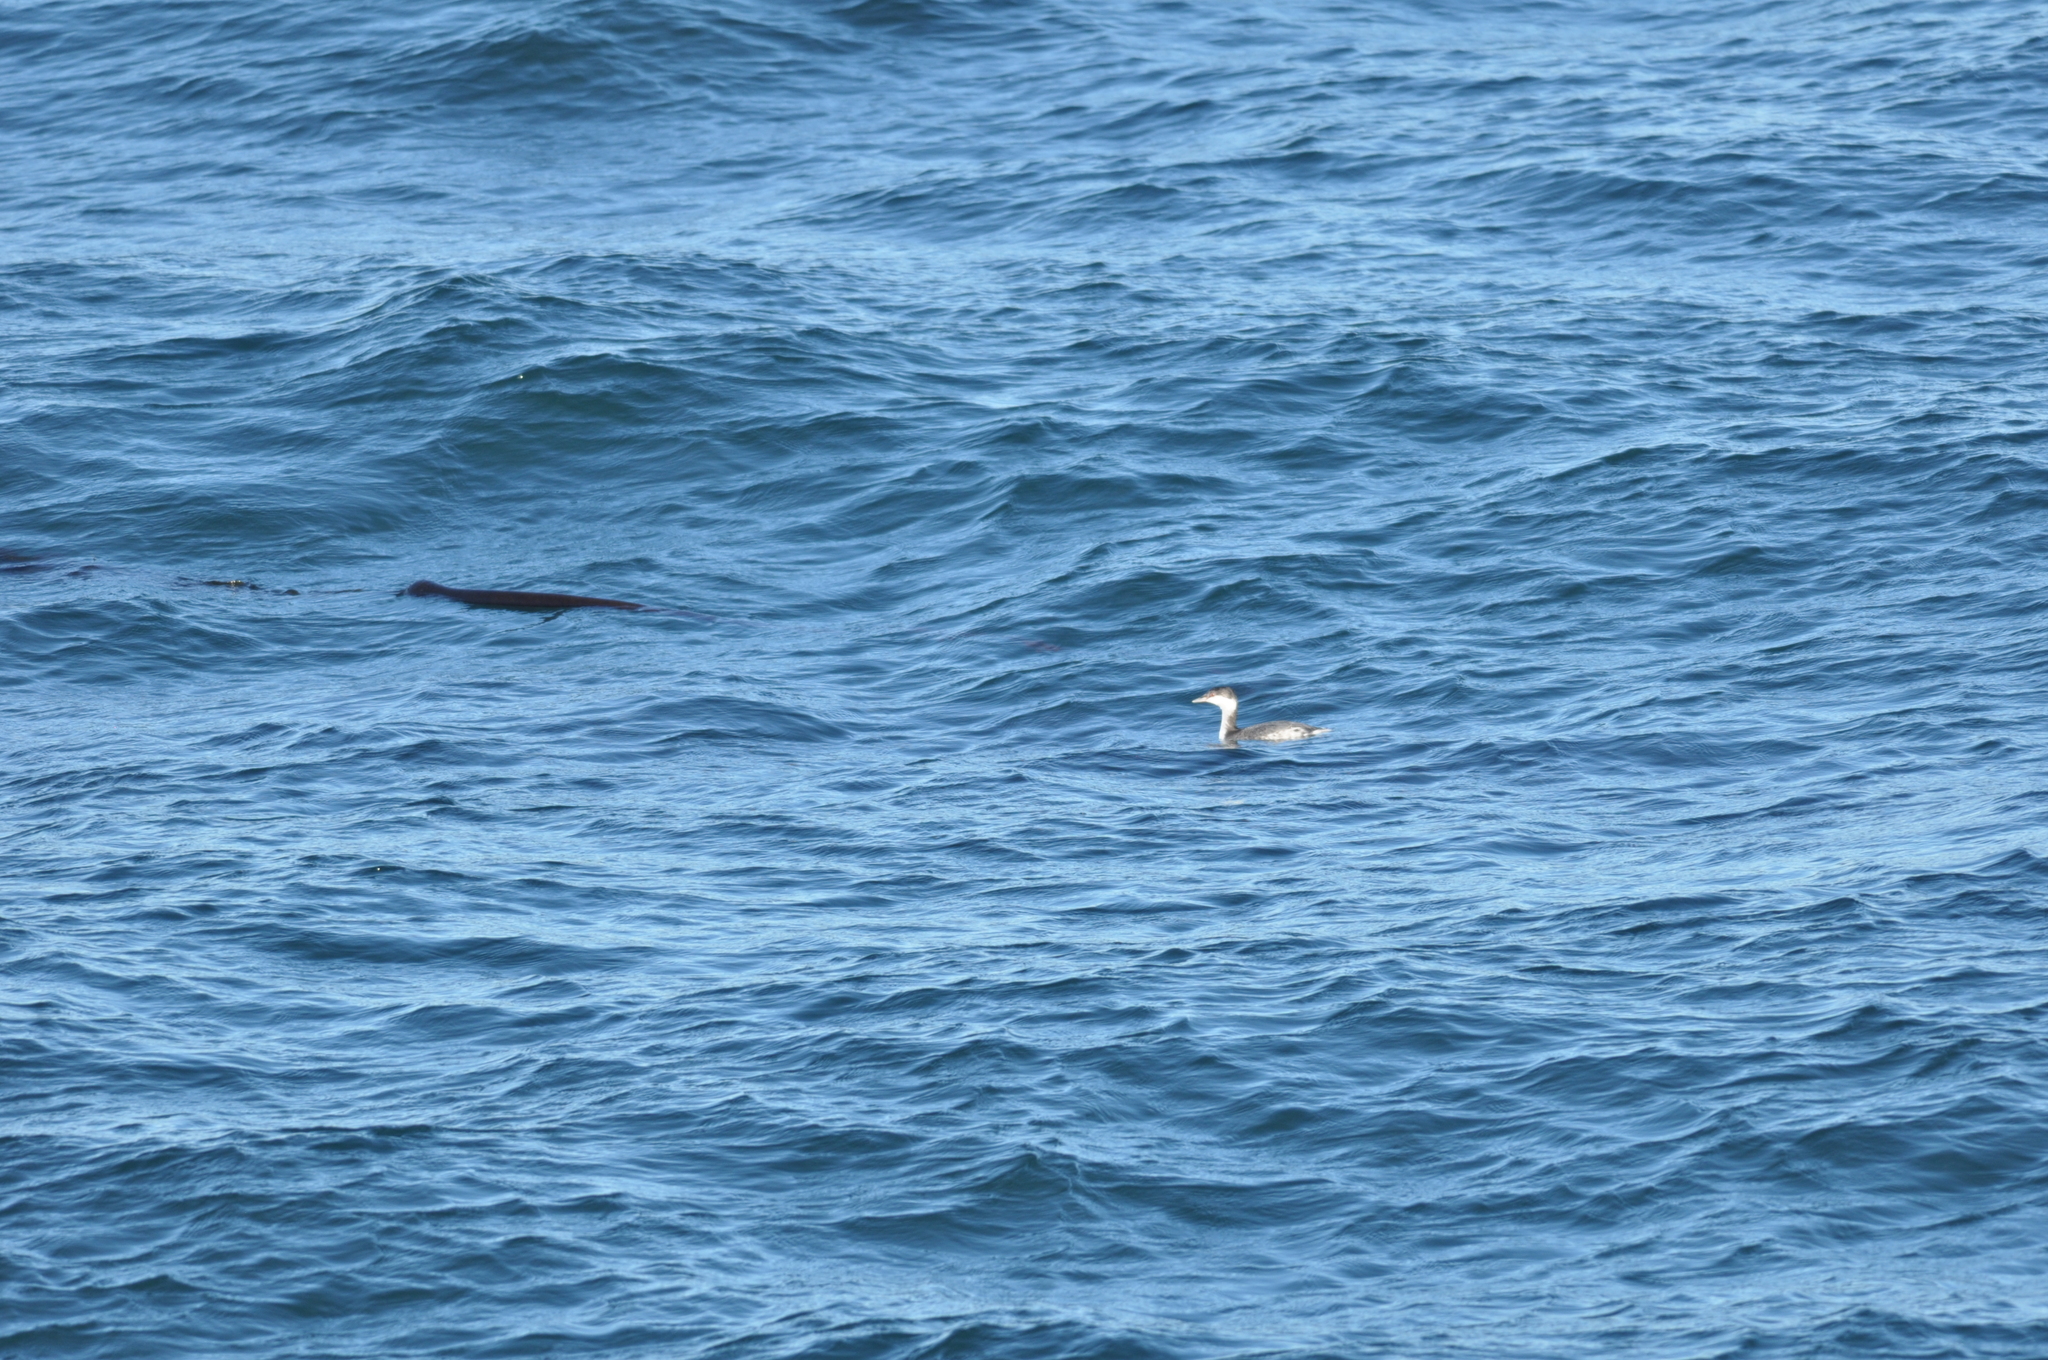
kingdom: Animalia
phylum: Chordata
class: Aves
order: Podicipediformes
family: Podicipedidae
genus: Podiceps
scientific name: Podiceps auritus
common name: Horned grebe
